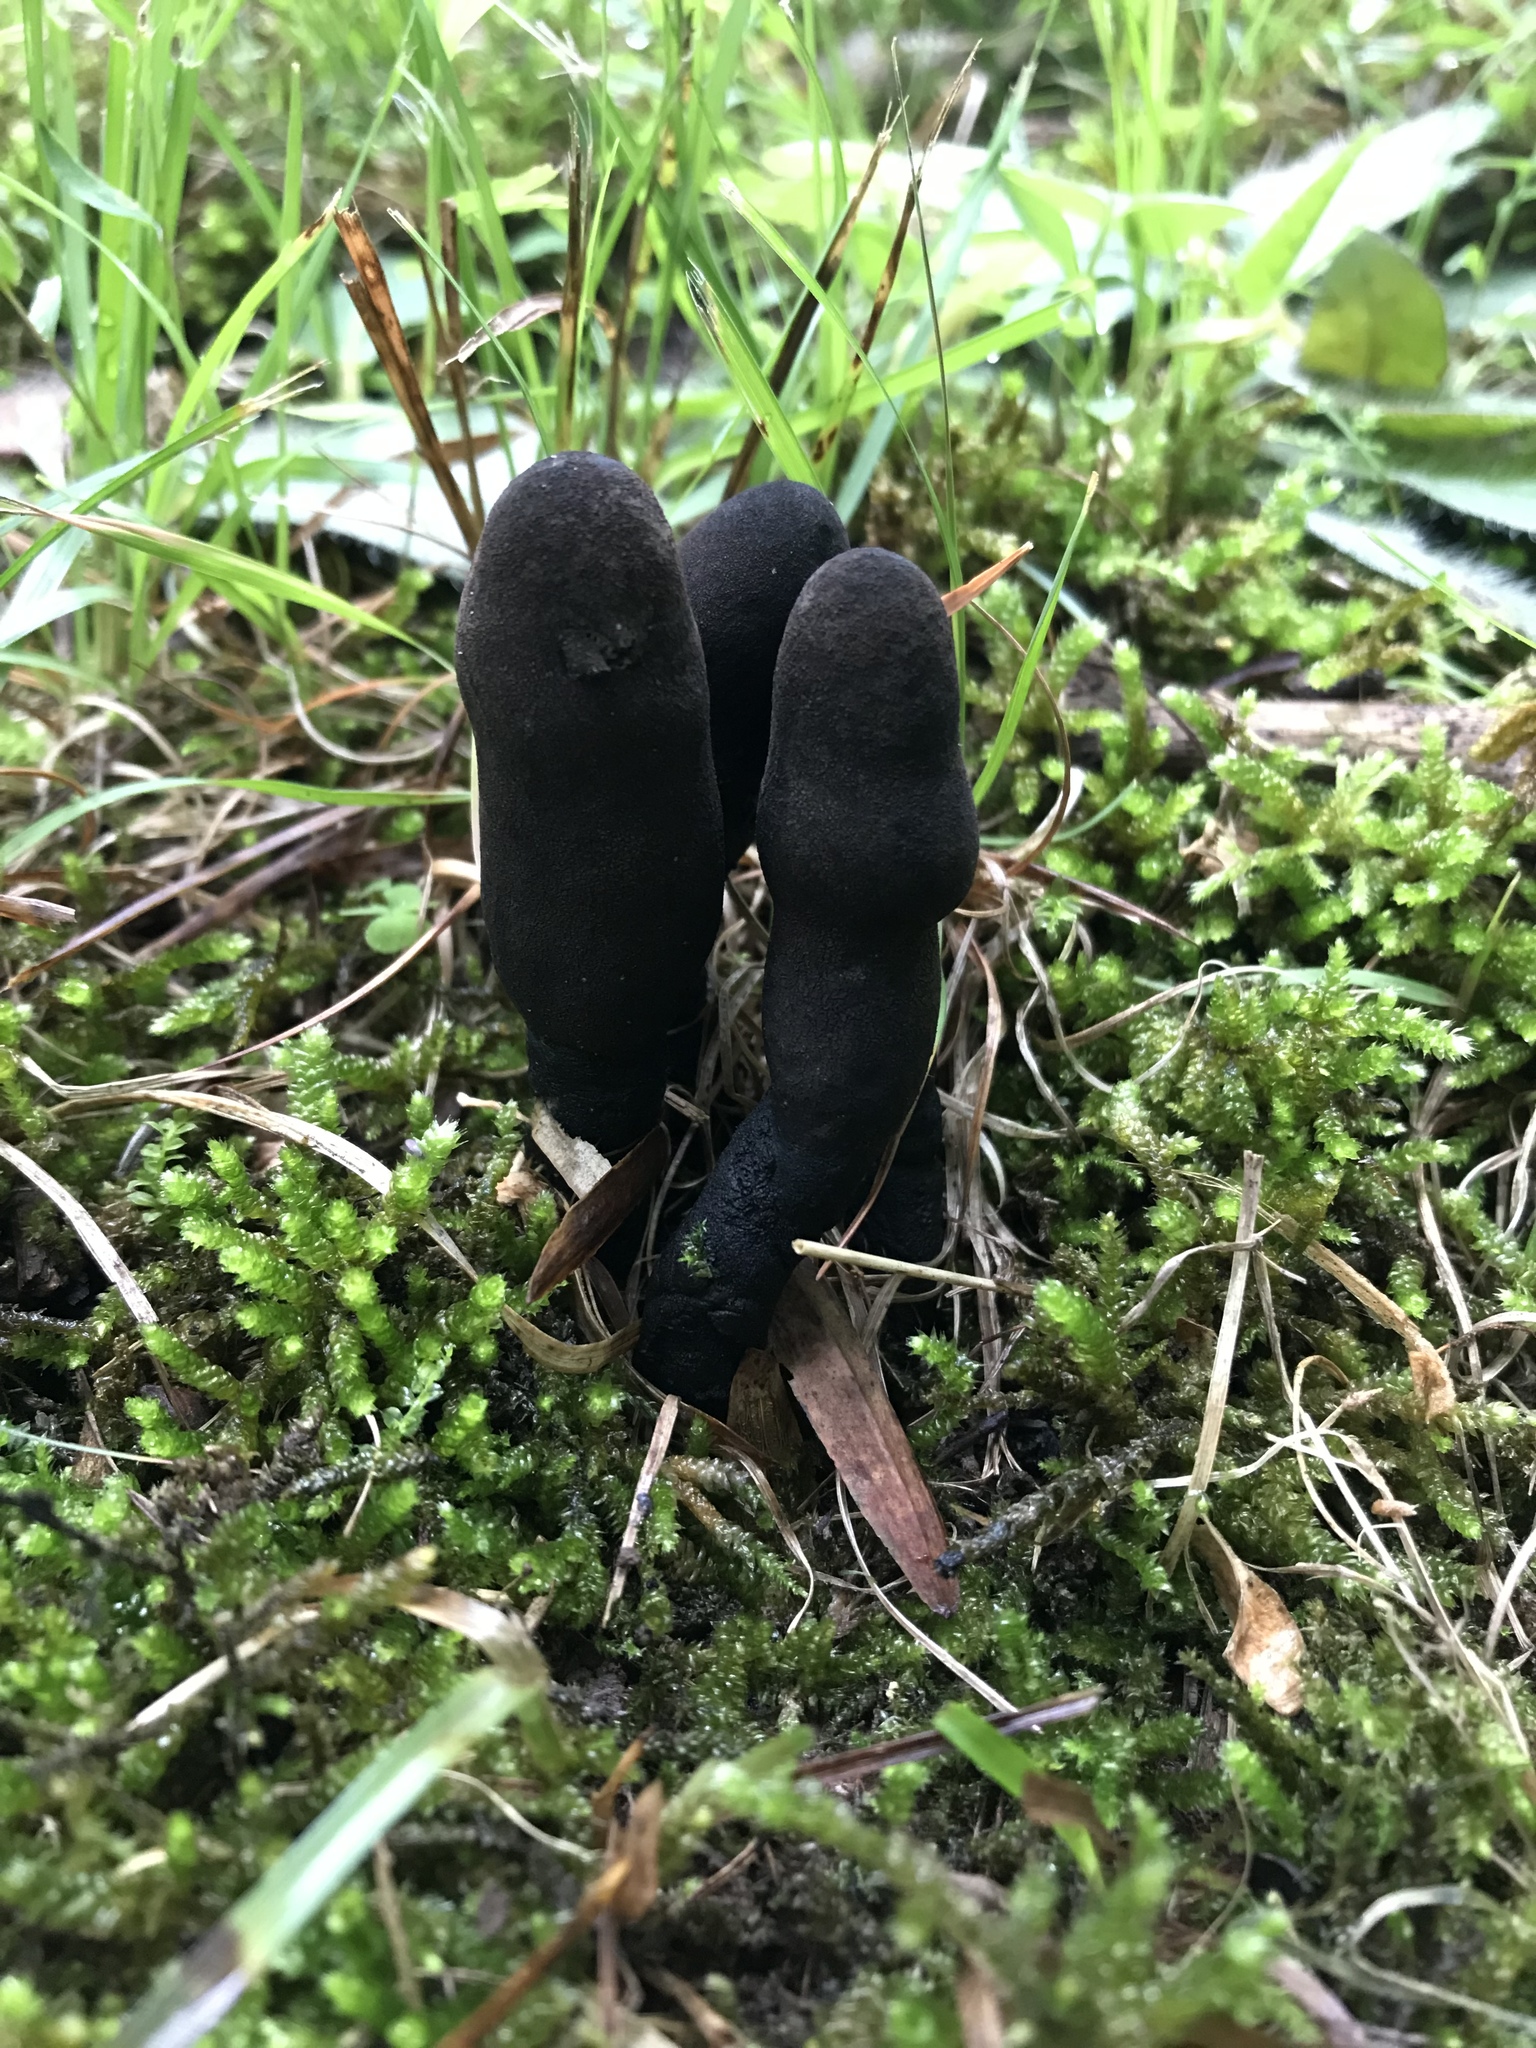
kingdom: Fungi
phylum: Ascomycota
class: Sordariomycetes
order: Xylariales
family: Xylariaceae
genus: Xylaria
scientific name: Xylaria polymorpha
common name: Dead man's fingers
